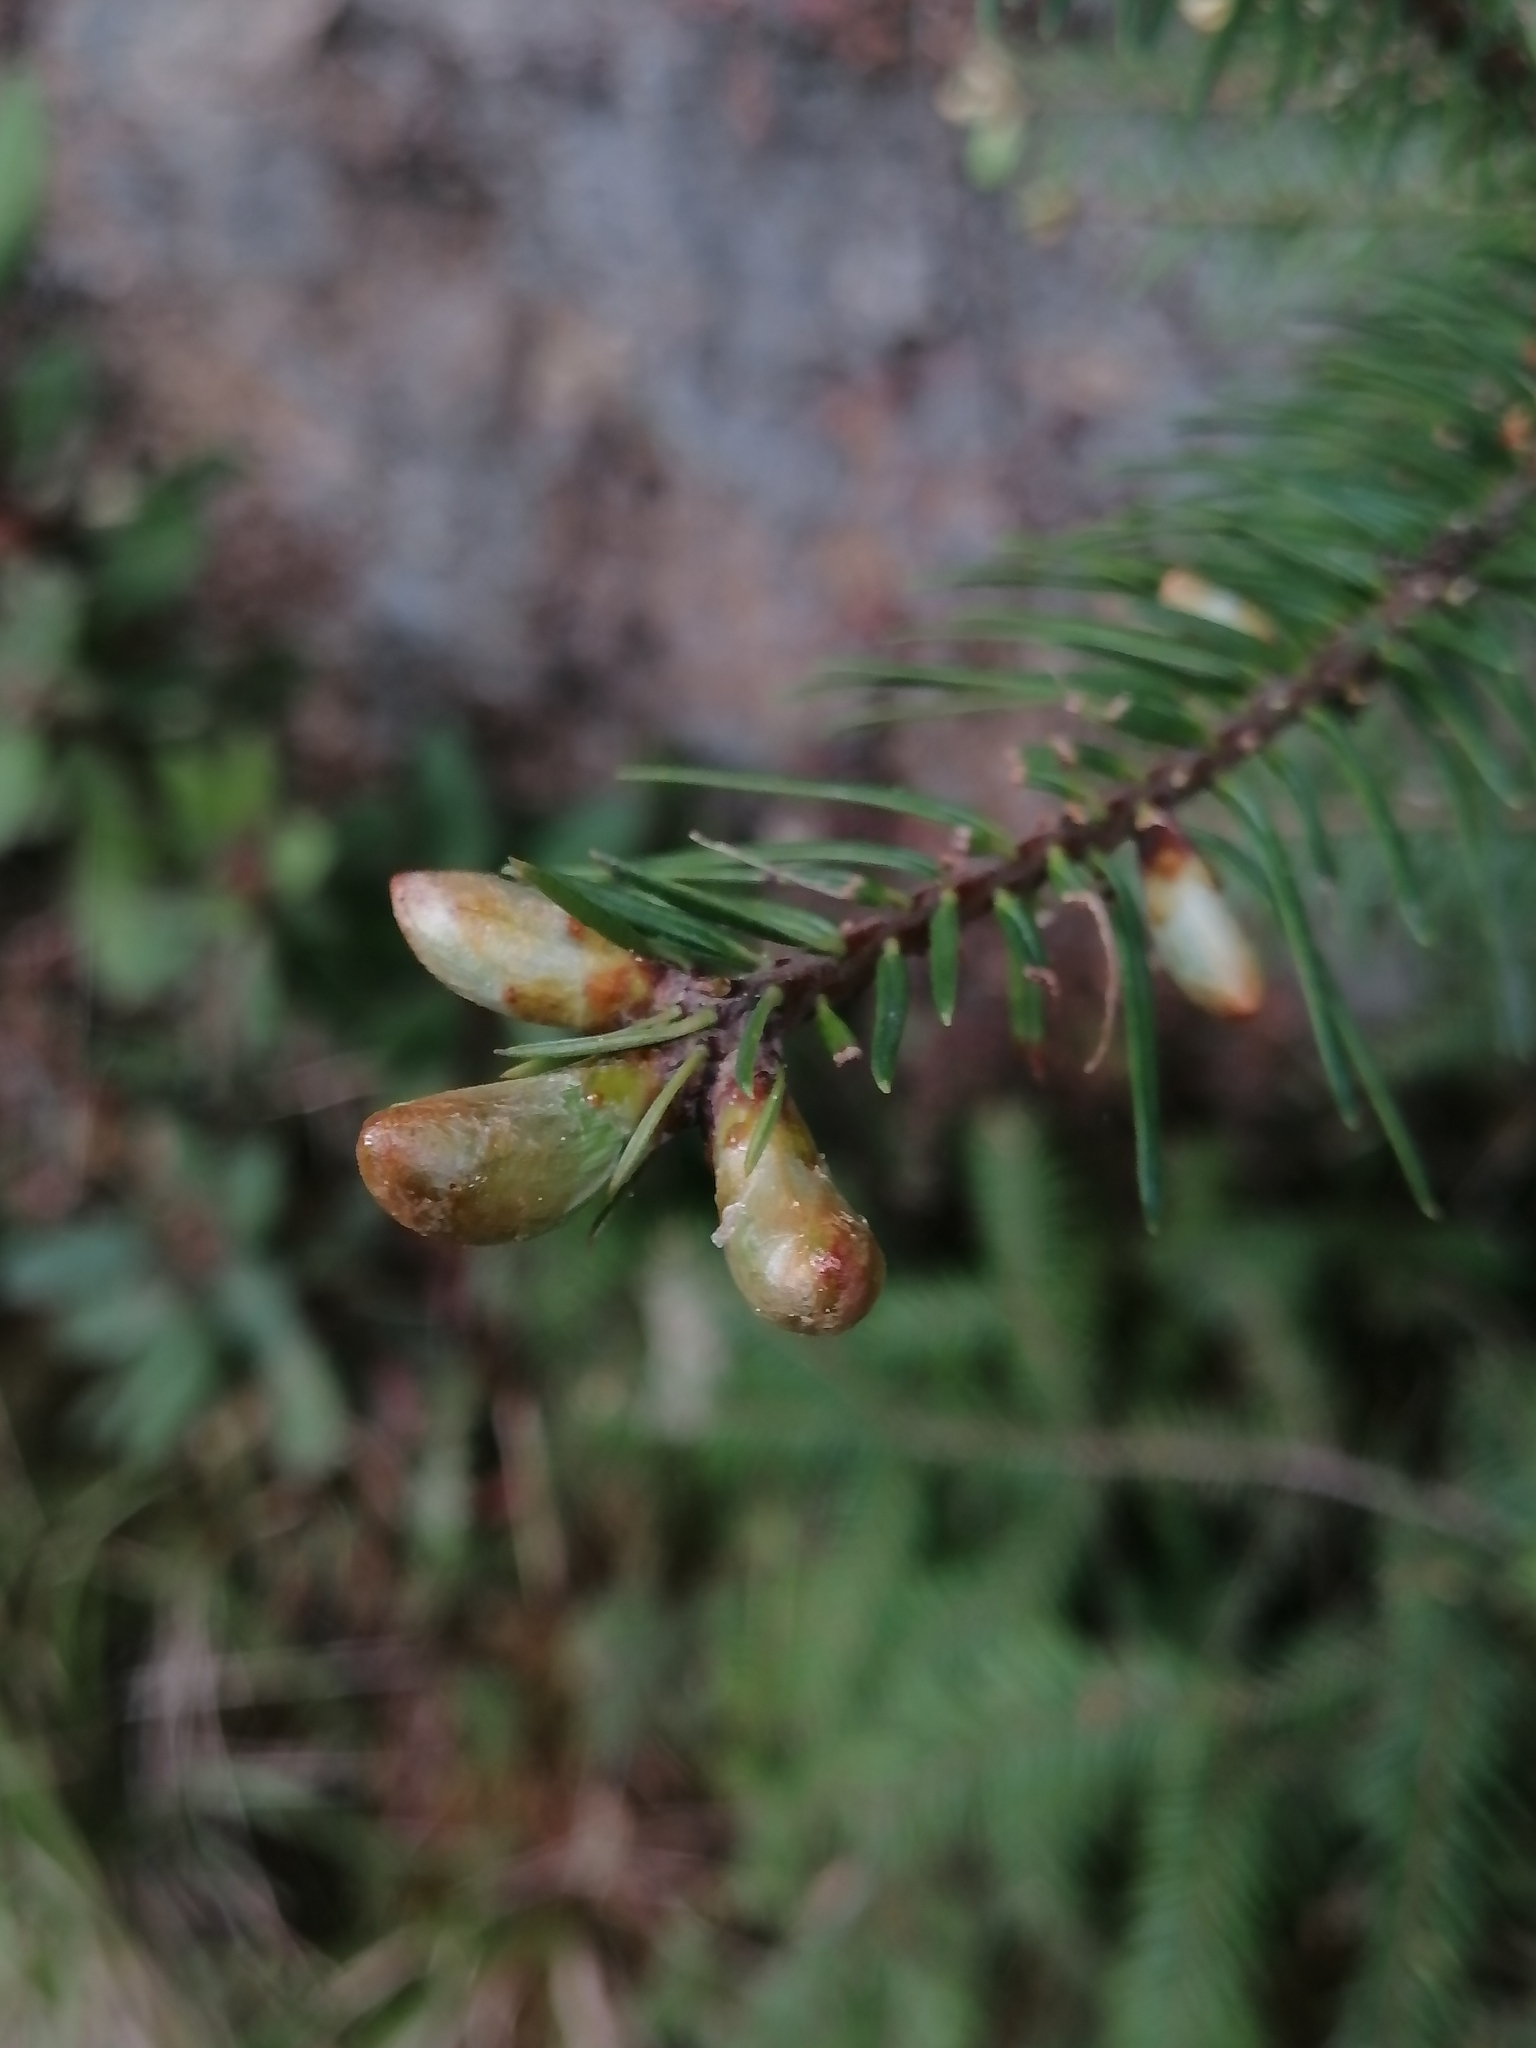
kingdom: Plantae
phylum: Tracheophyta
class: Pinopsida
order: Pinales
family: Pinaceae
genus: Abies
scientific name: Abies religiosa
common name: Sacred fir
